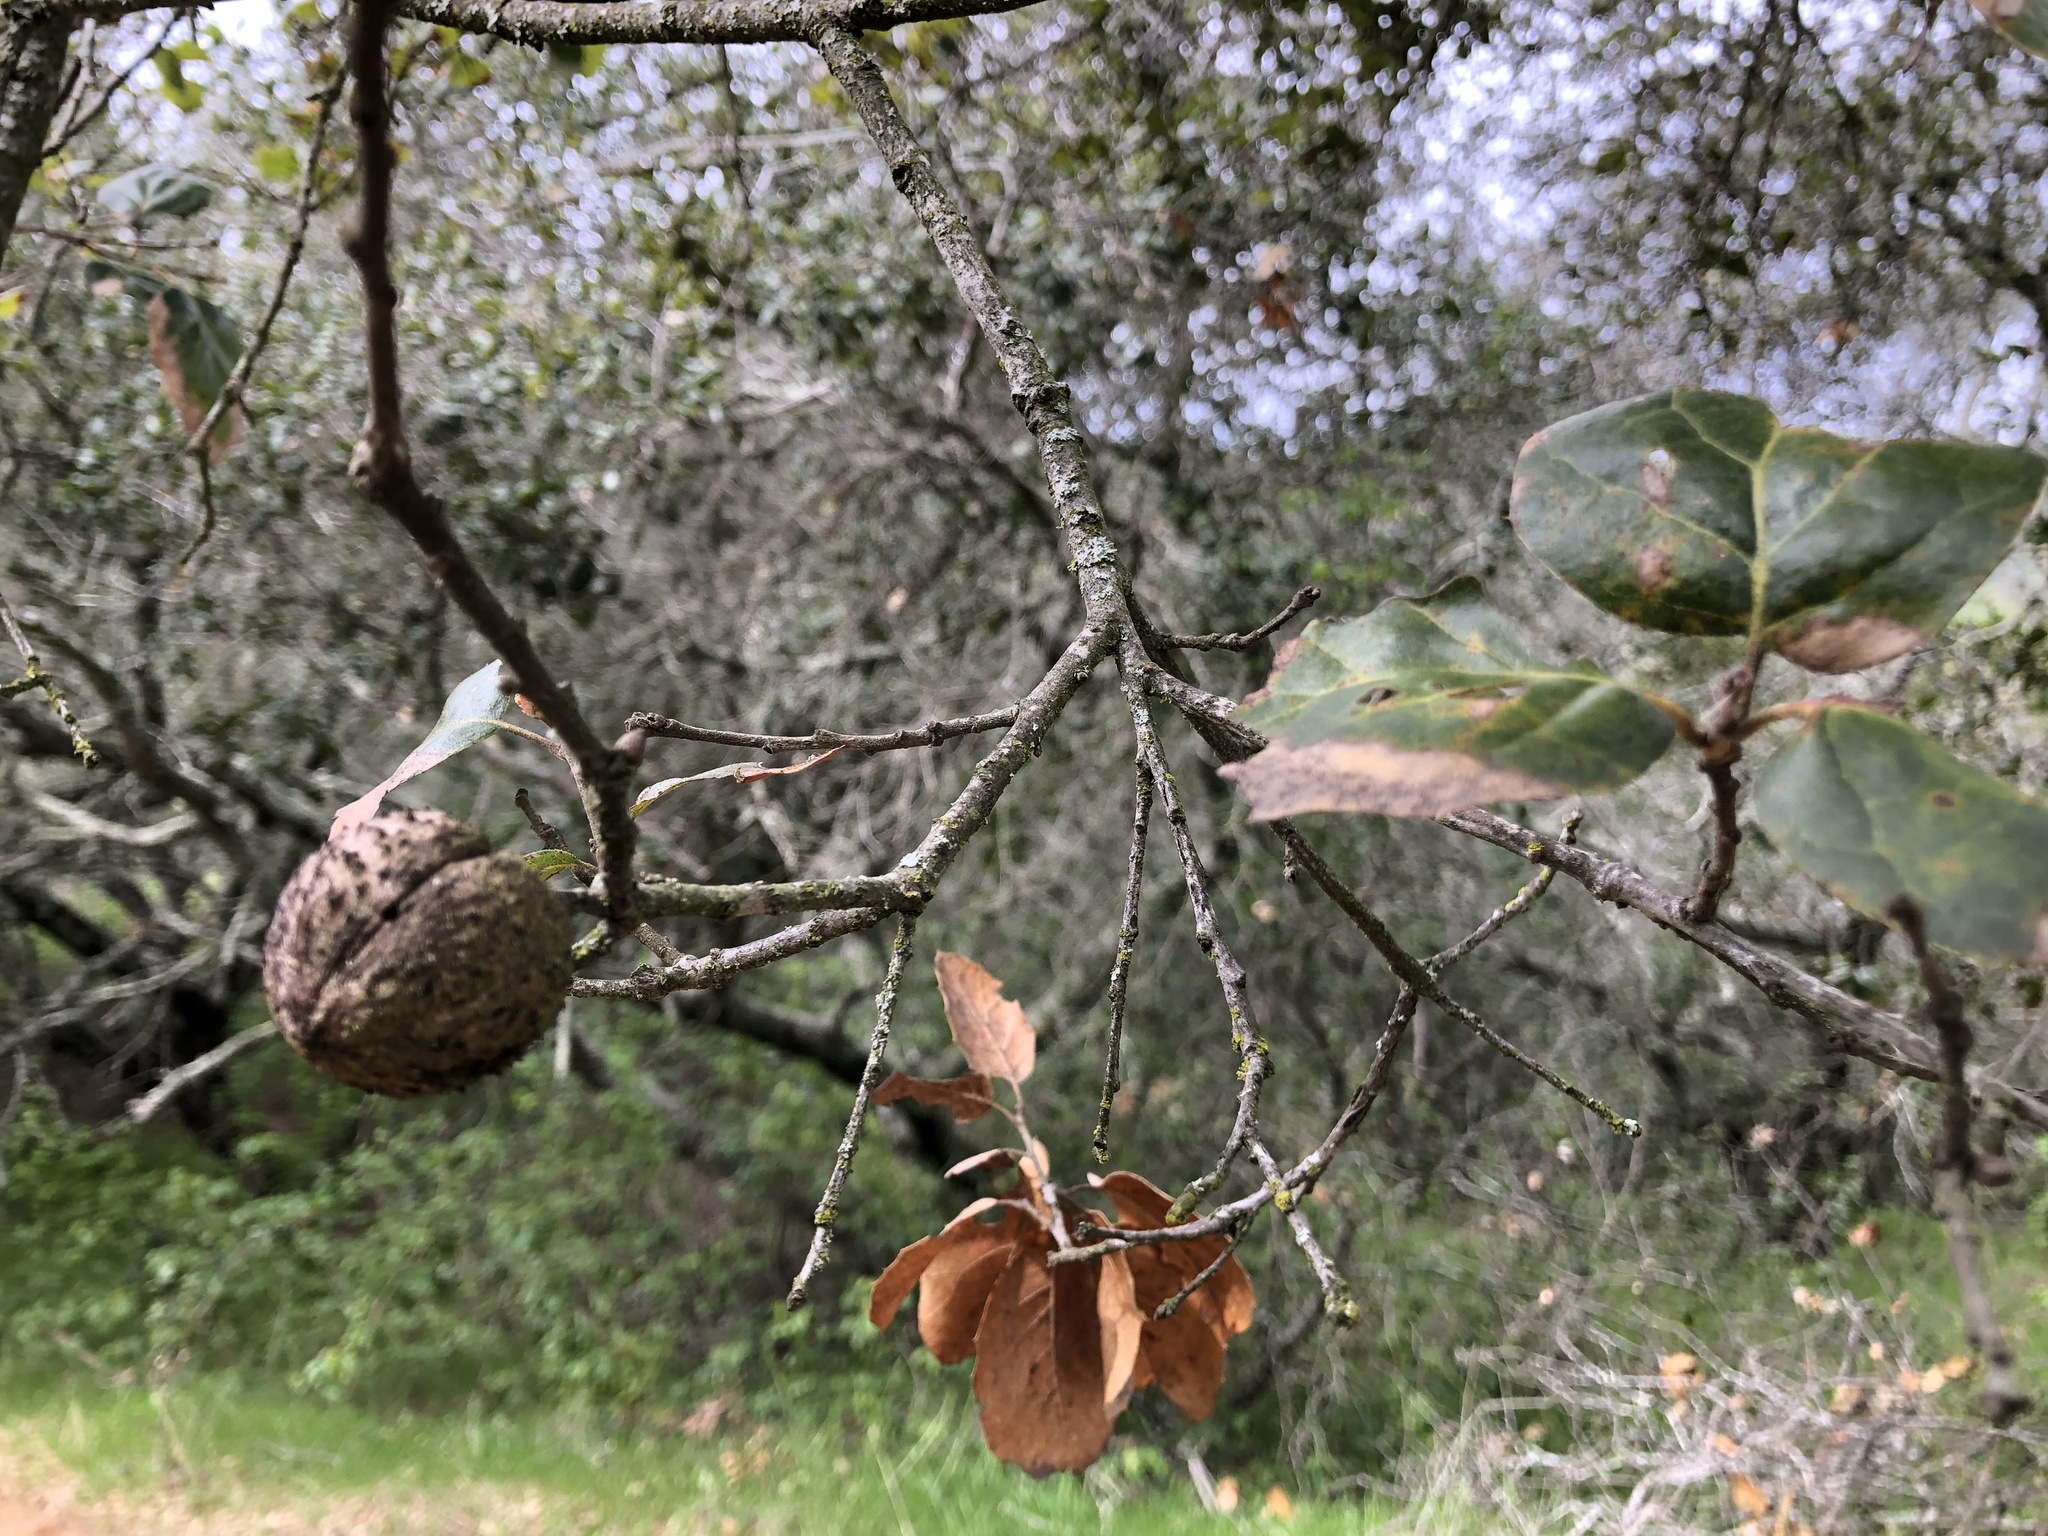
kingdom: Animalia
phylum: Arthropoda
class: Insecta
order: Hymenoptera
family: Cynipidae
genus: Amphibolips
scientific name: Amphibolips quercuspomiformis
